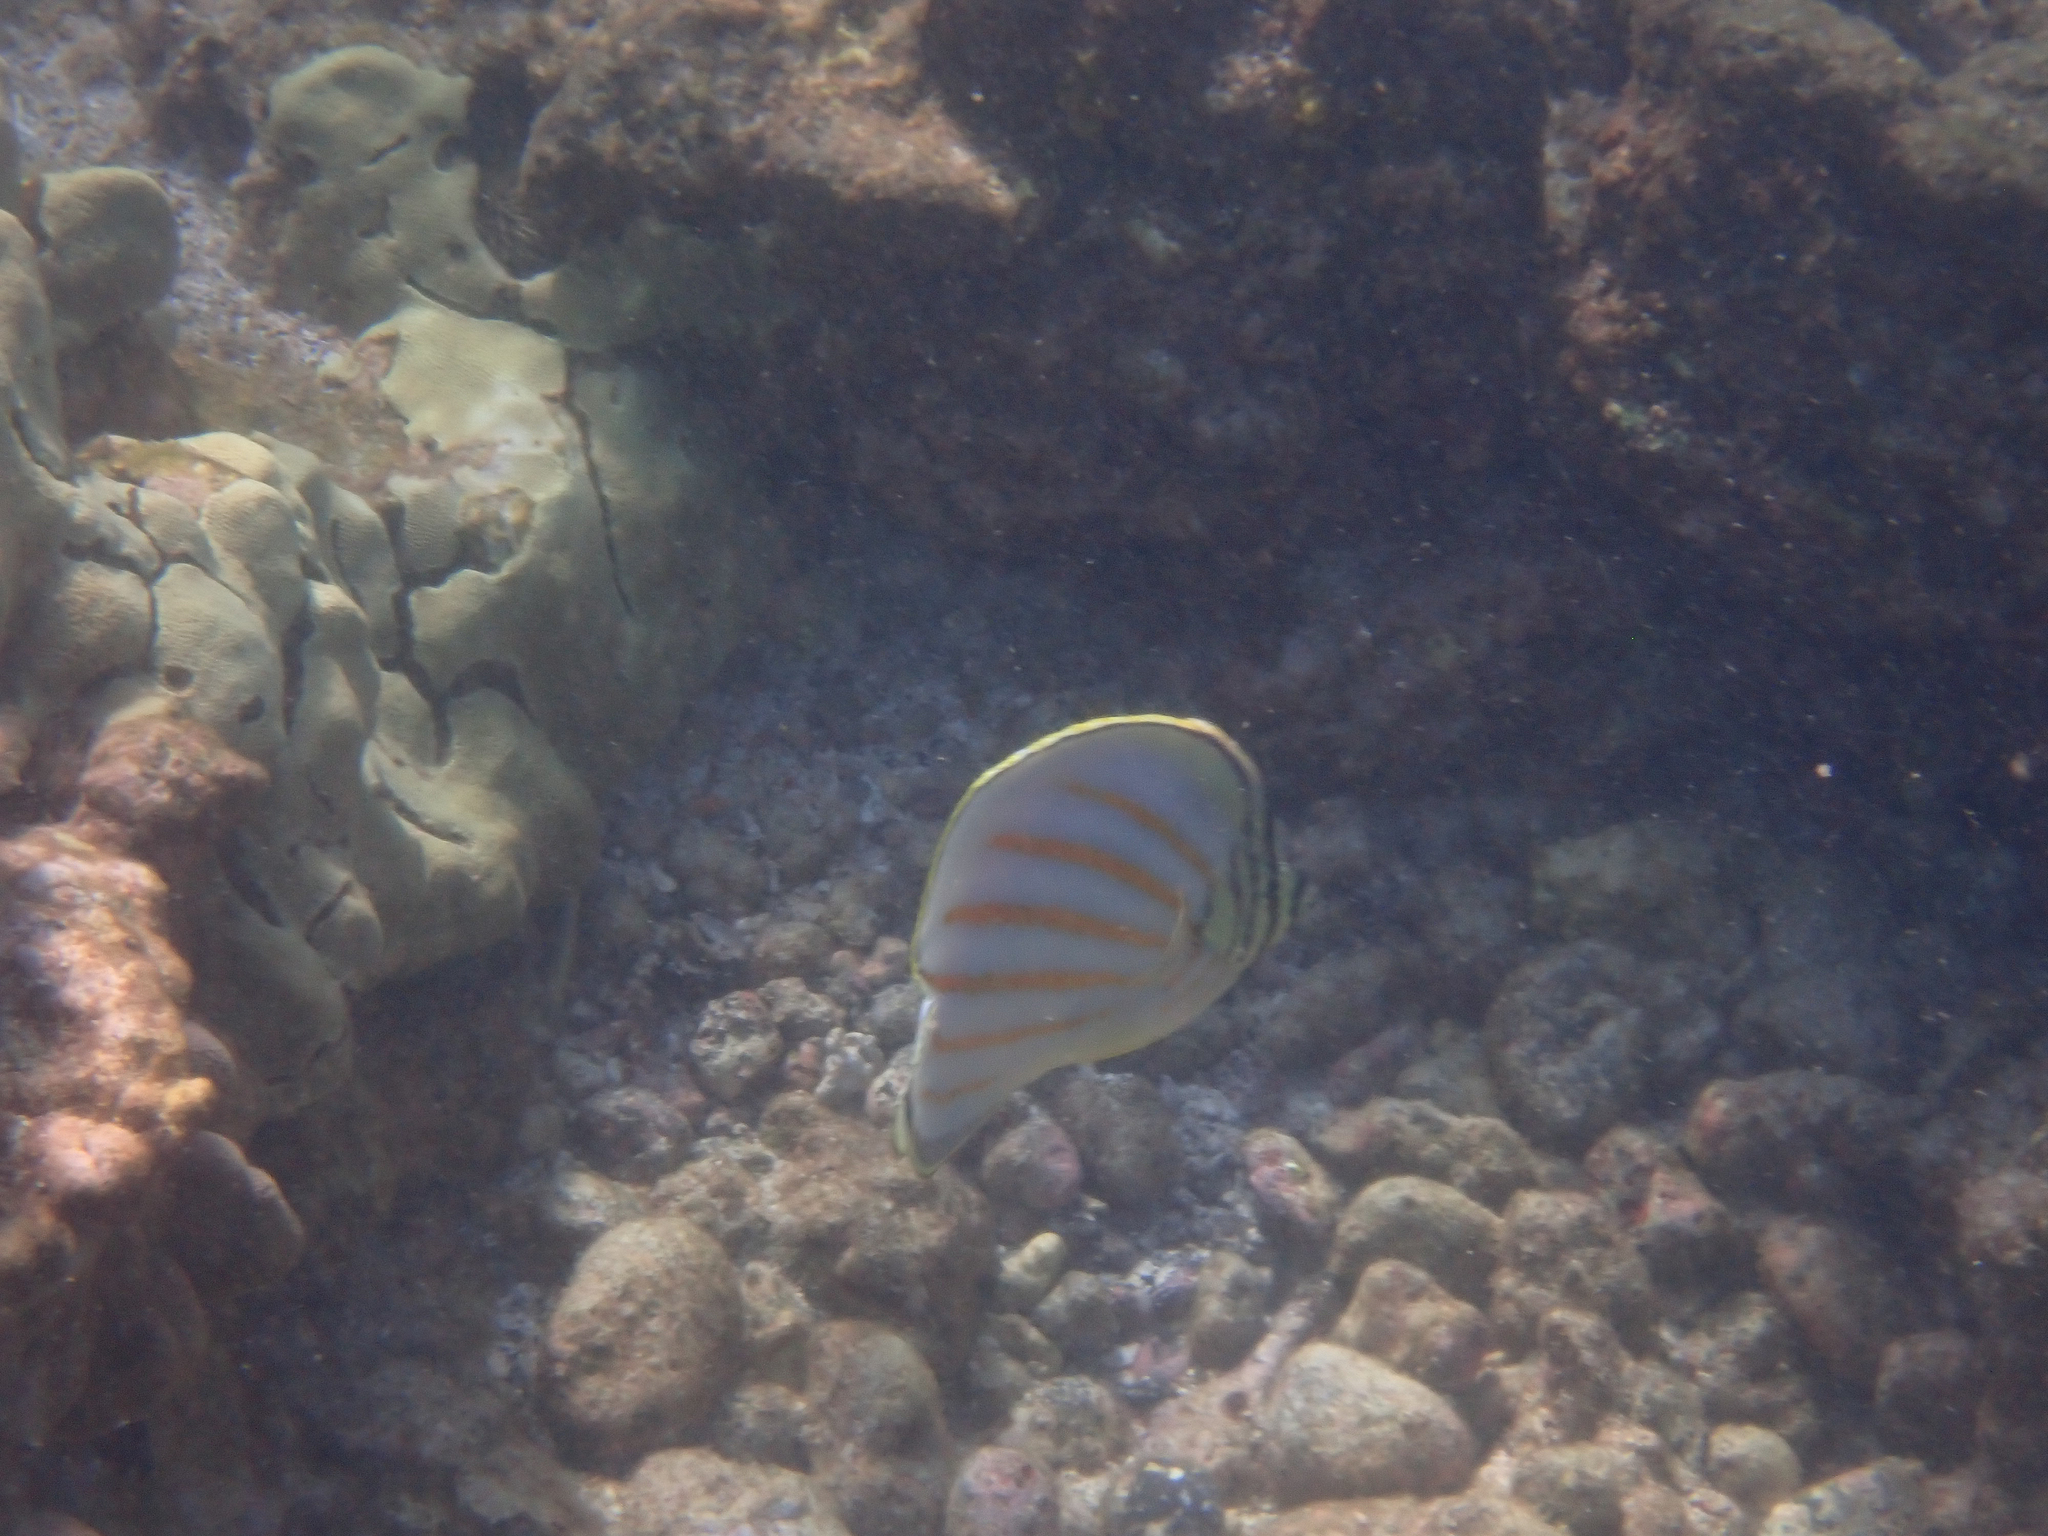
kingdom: Animalia
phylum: Chordata
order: Perciformes
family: Chaetodontidae
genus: Chaetodon
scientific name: Chaetodon ornatissimus
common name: Ornate butterflyfish
